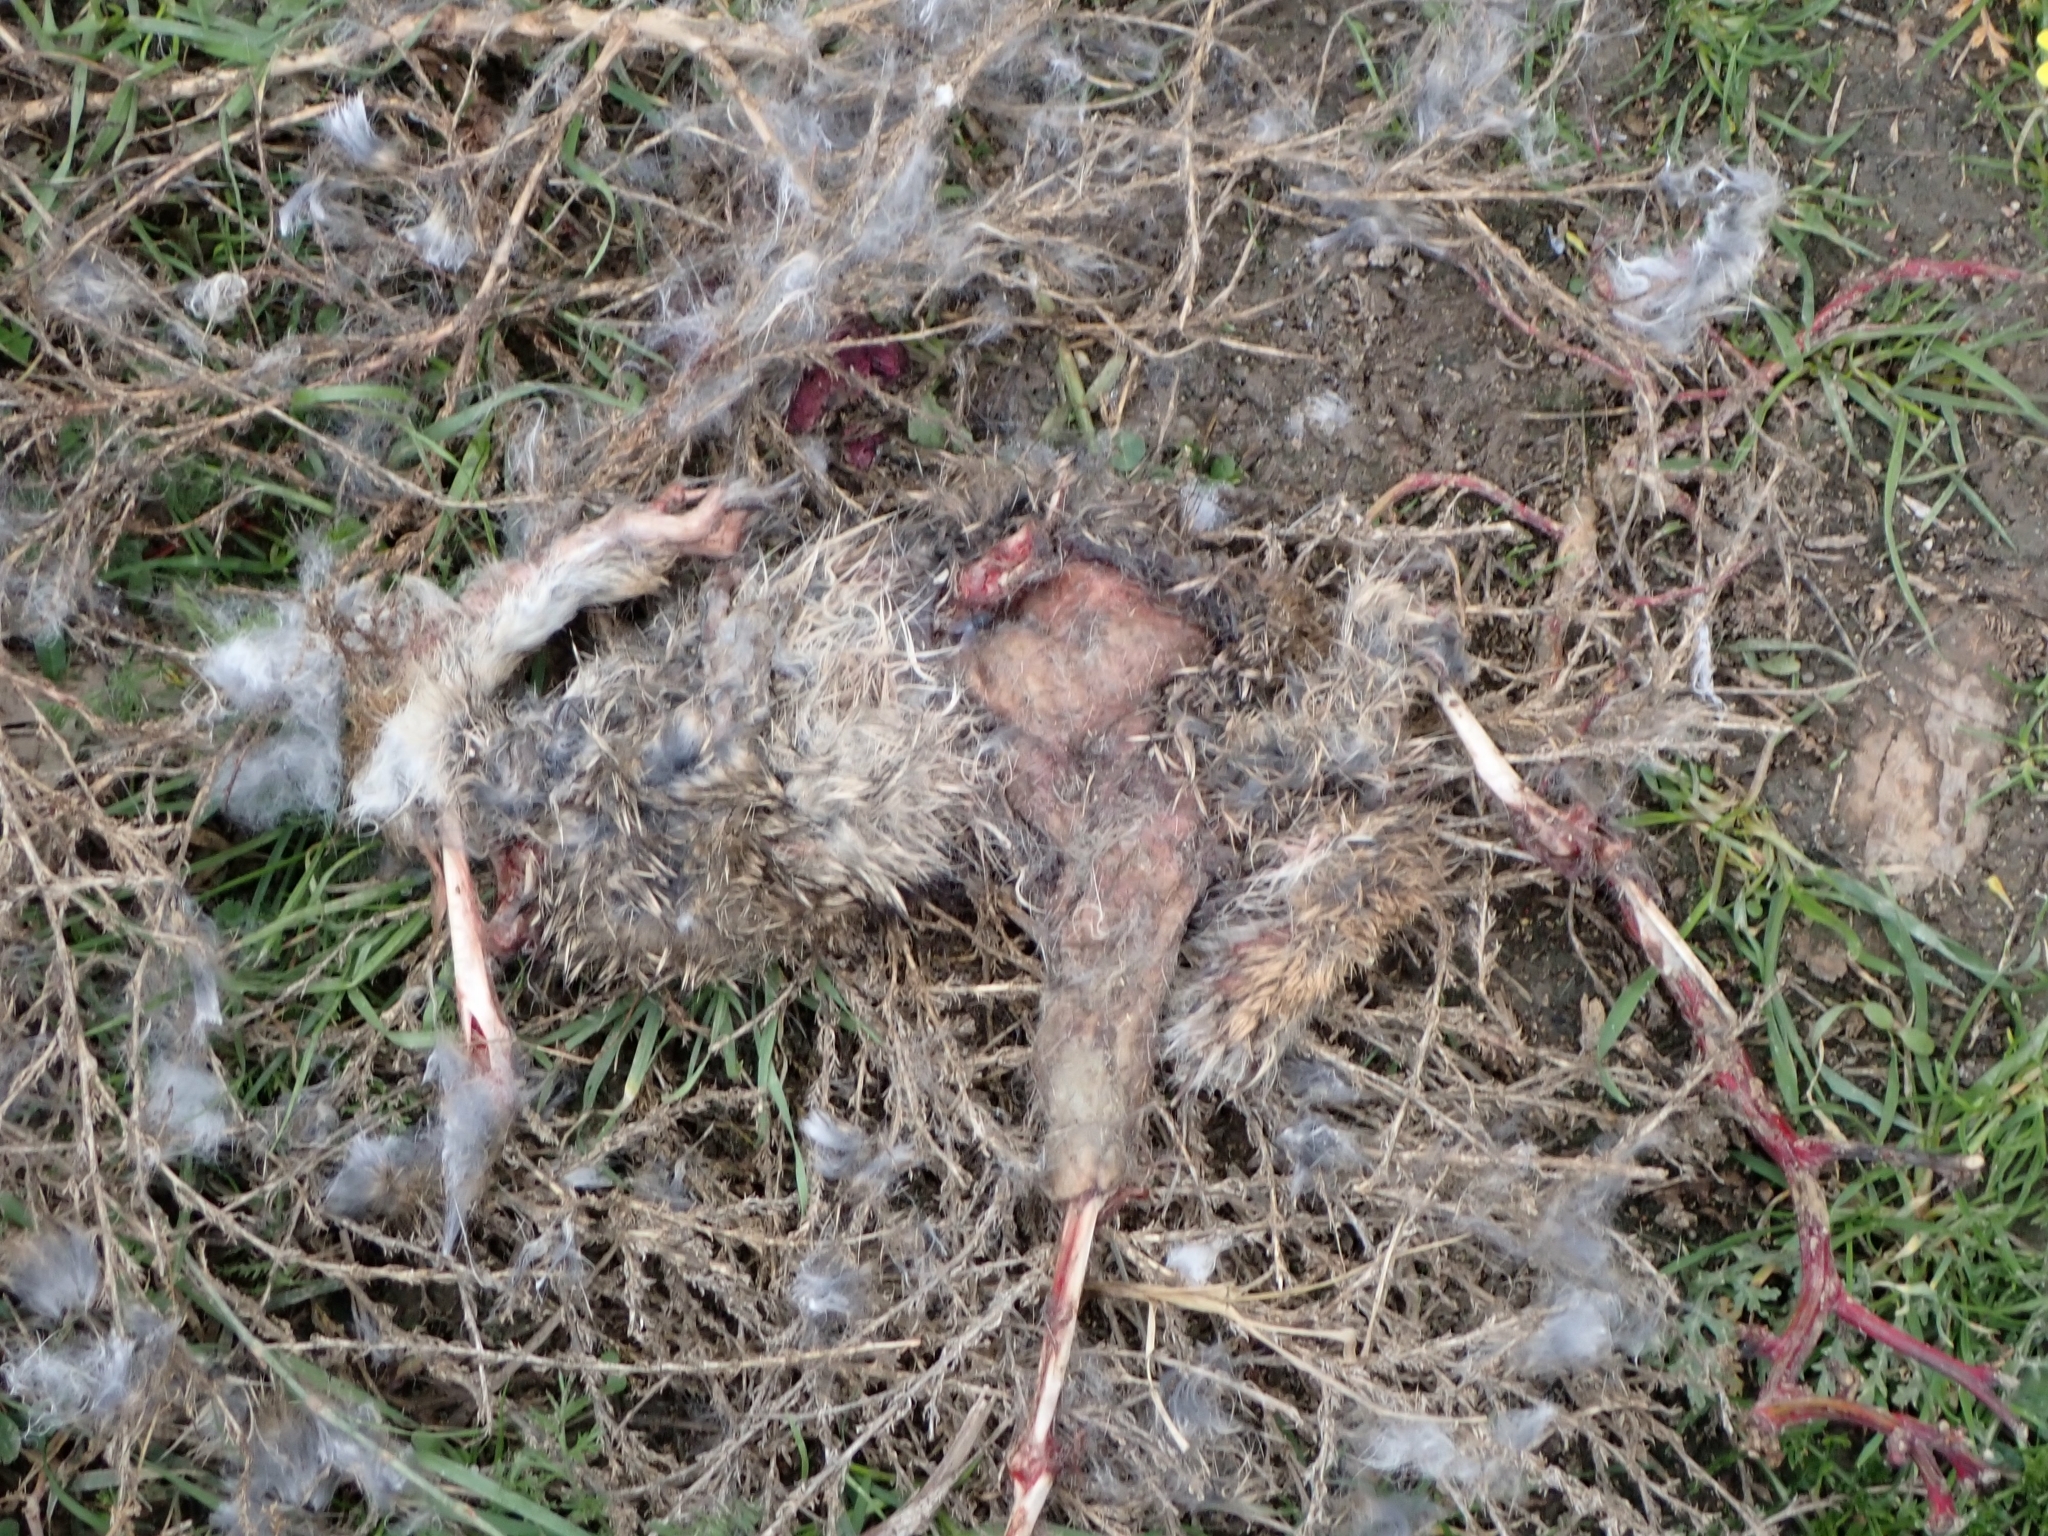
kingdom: Animalia
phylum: Chordata
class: Mammalia
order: Lagomorpha
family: Leporidae
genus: Oryctolagus
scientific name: Oryctolagus cuniculus
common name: European rabbit
